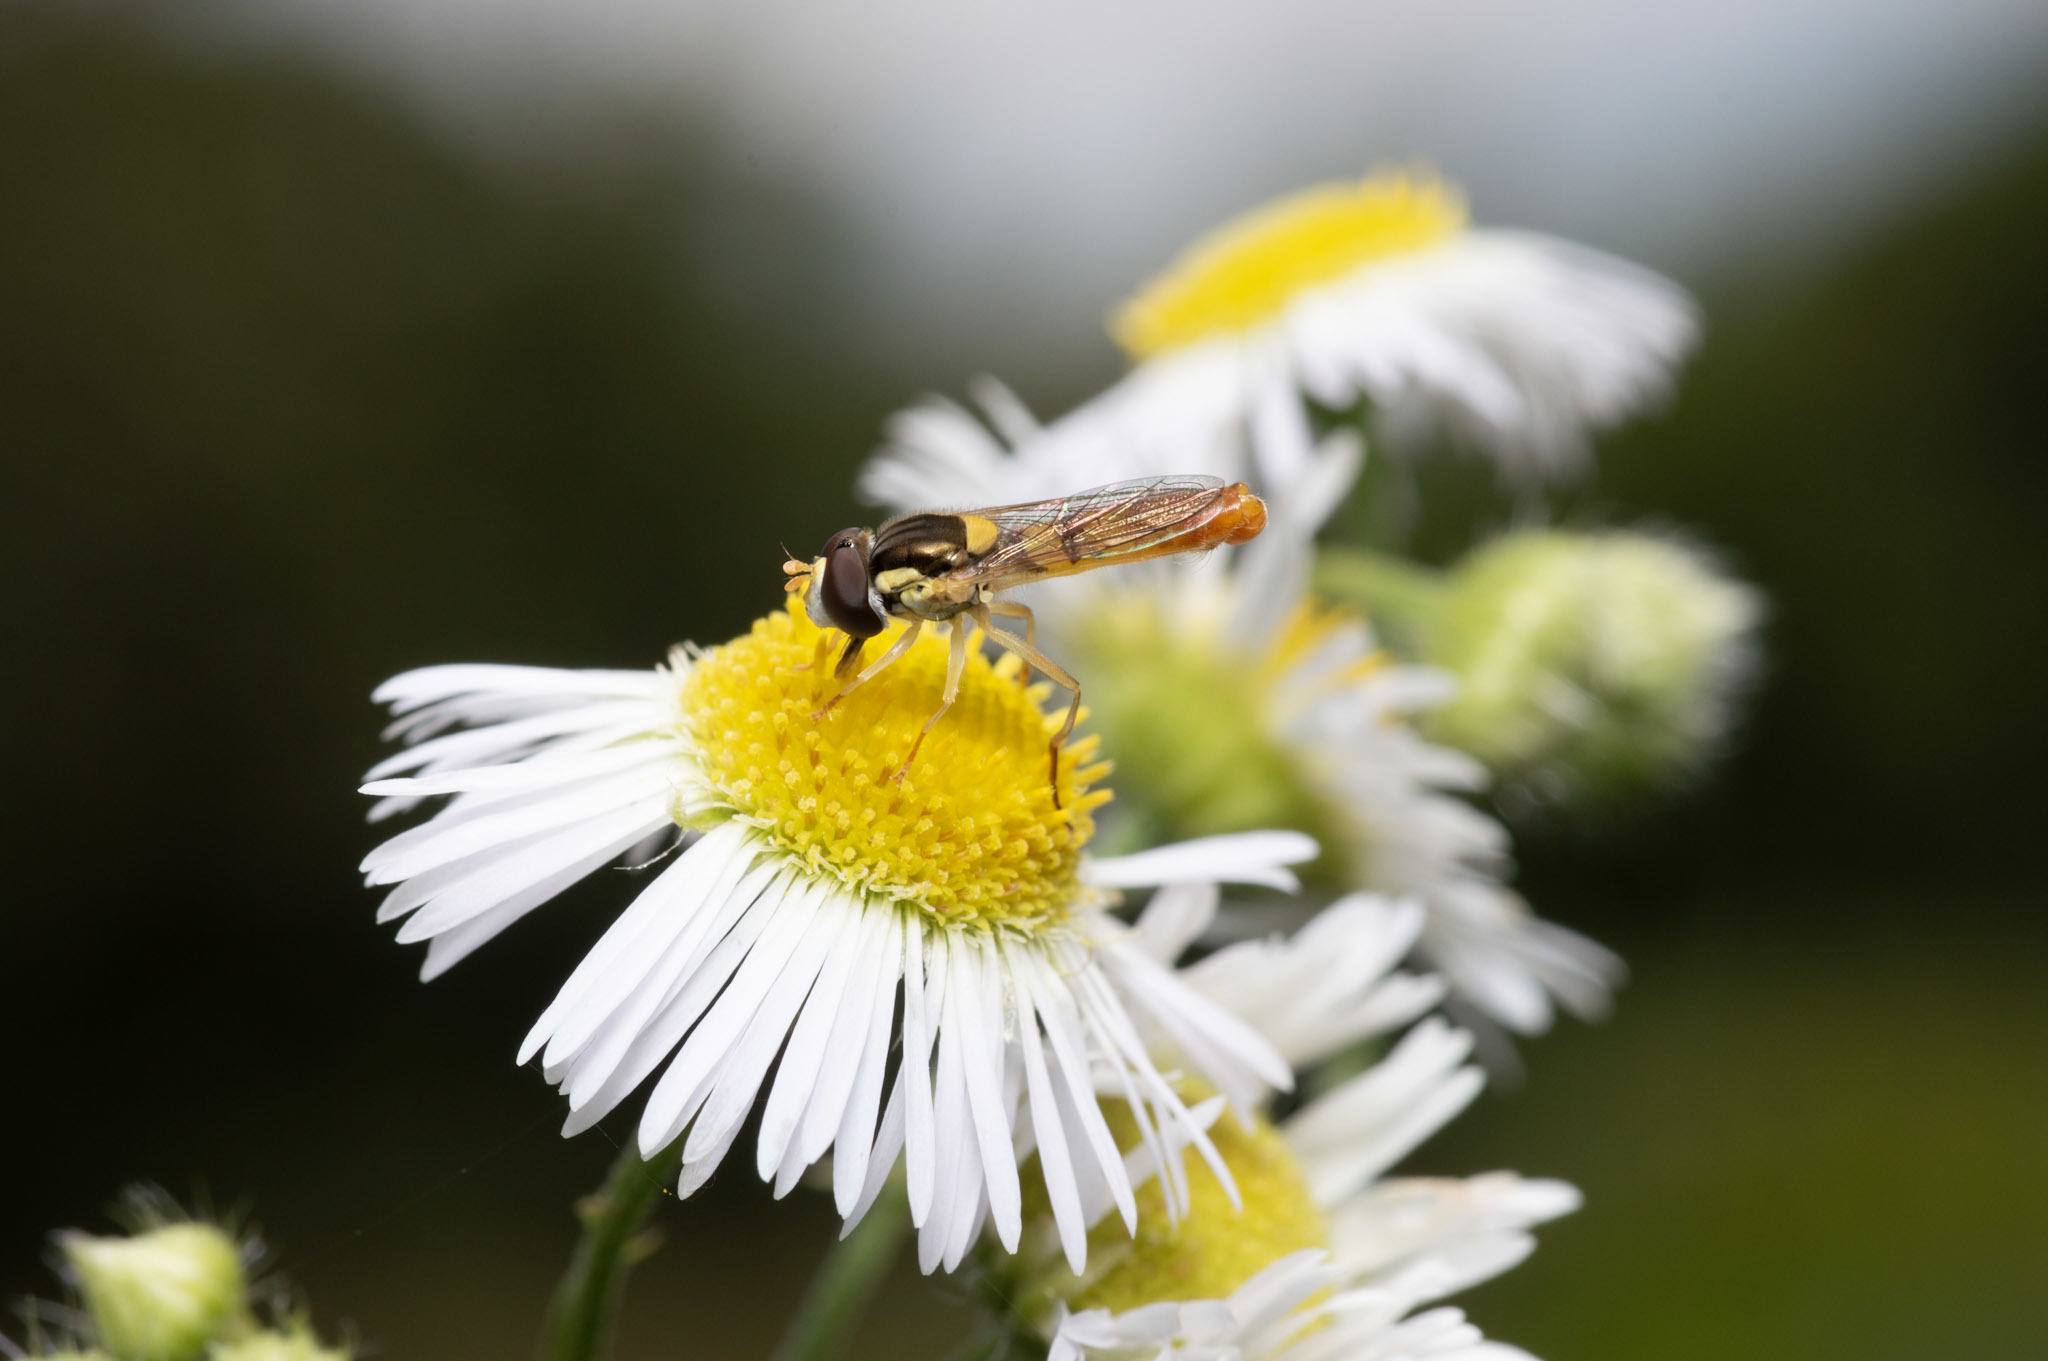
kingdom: Animalia
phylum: Arthropoda
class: Insecta
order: Diptera
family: Syrphidae
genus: Sphaerophoria
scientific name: Sphaerophoria contigua
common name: Tufted globetail
